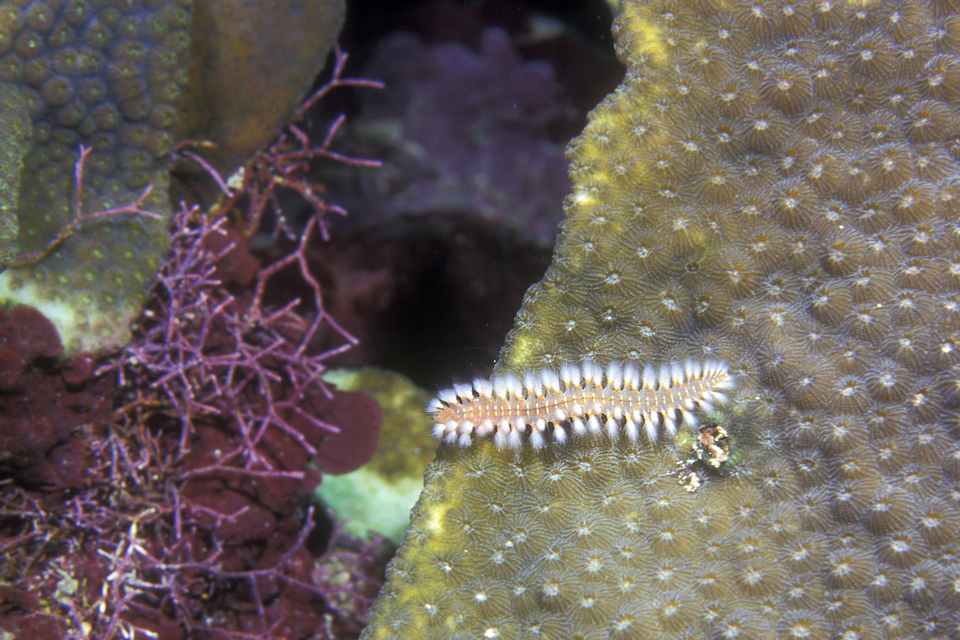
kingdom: Animalia
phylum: Annelida
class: Polychaeta
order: Amphinomida
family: Amphinomidae
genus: Hermodice
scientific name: Hermodice carunculata
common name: Bearded fireworm
